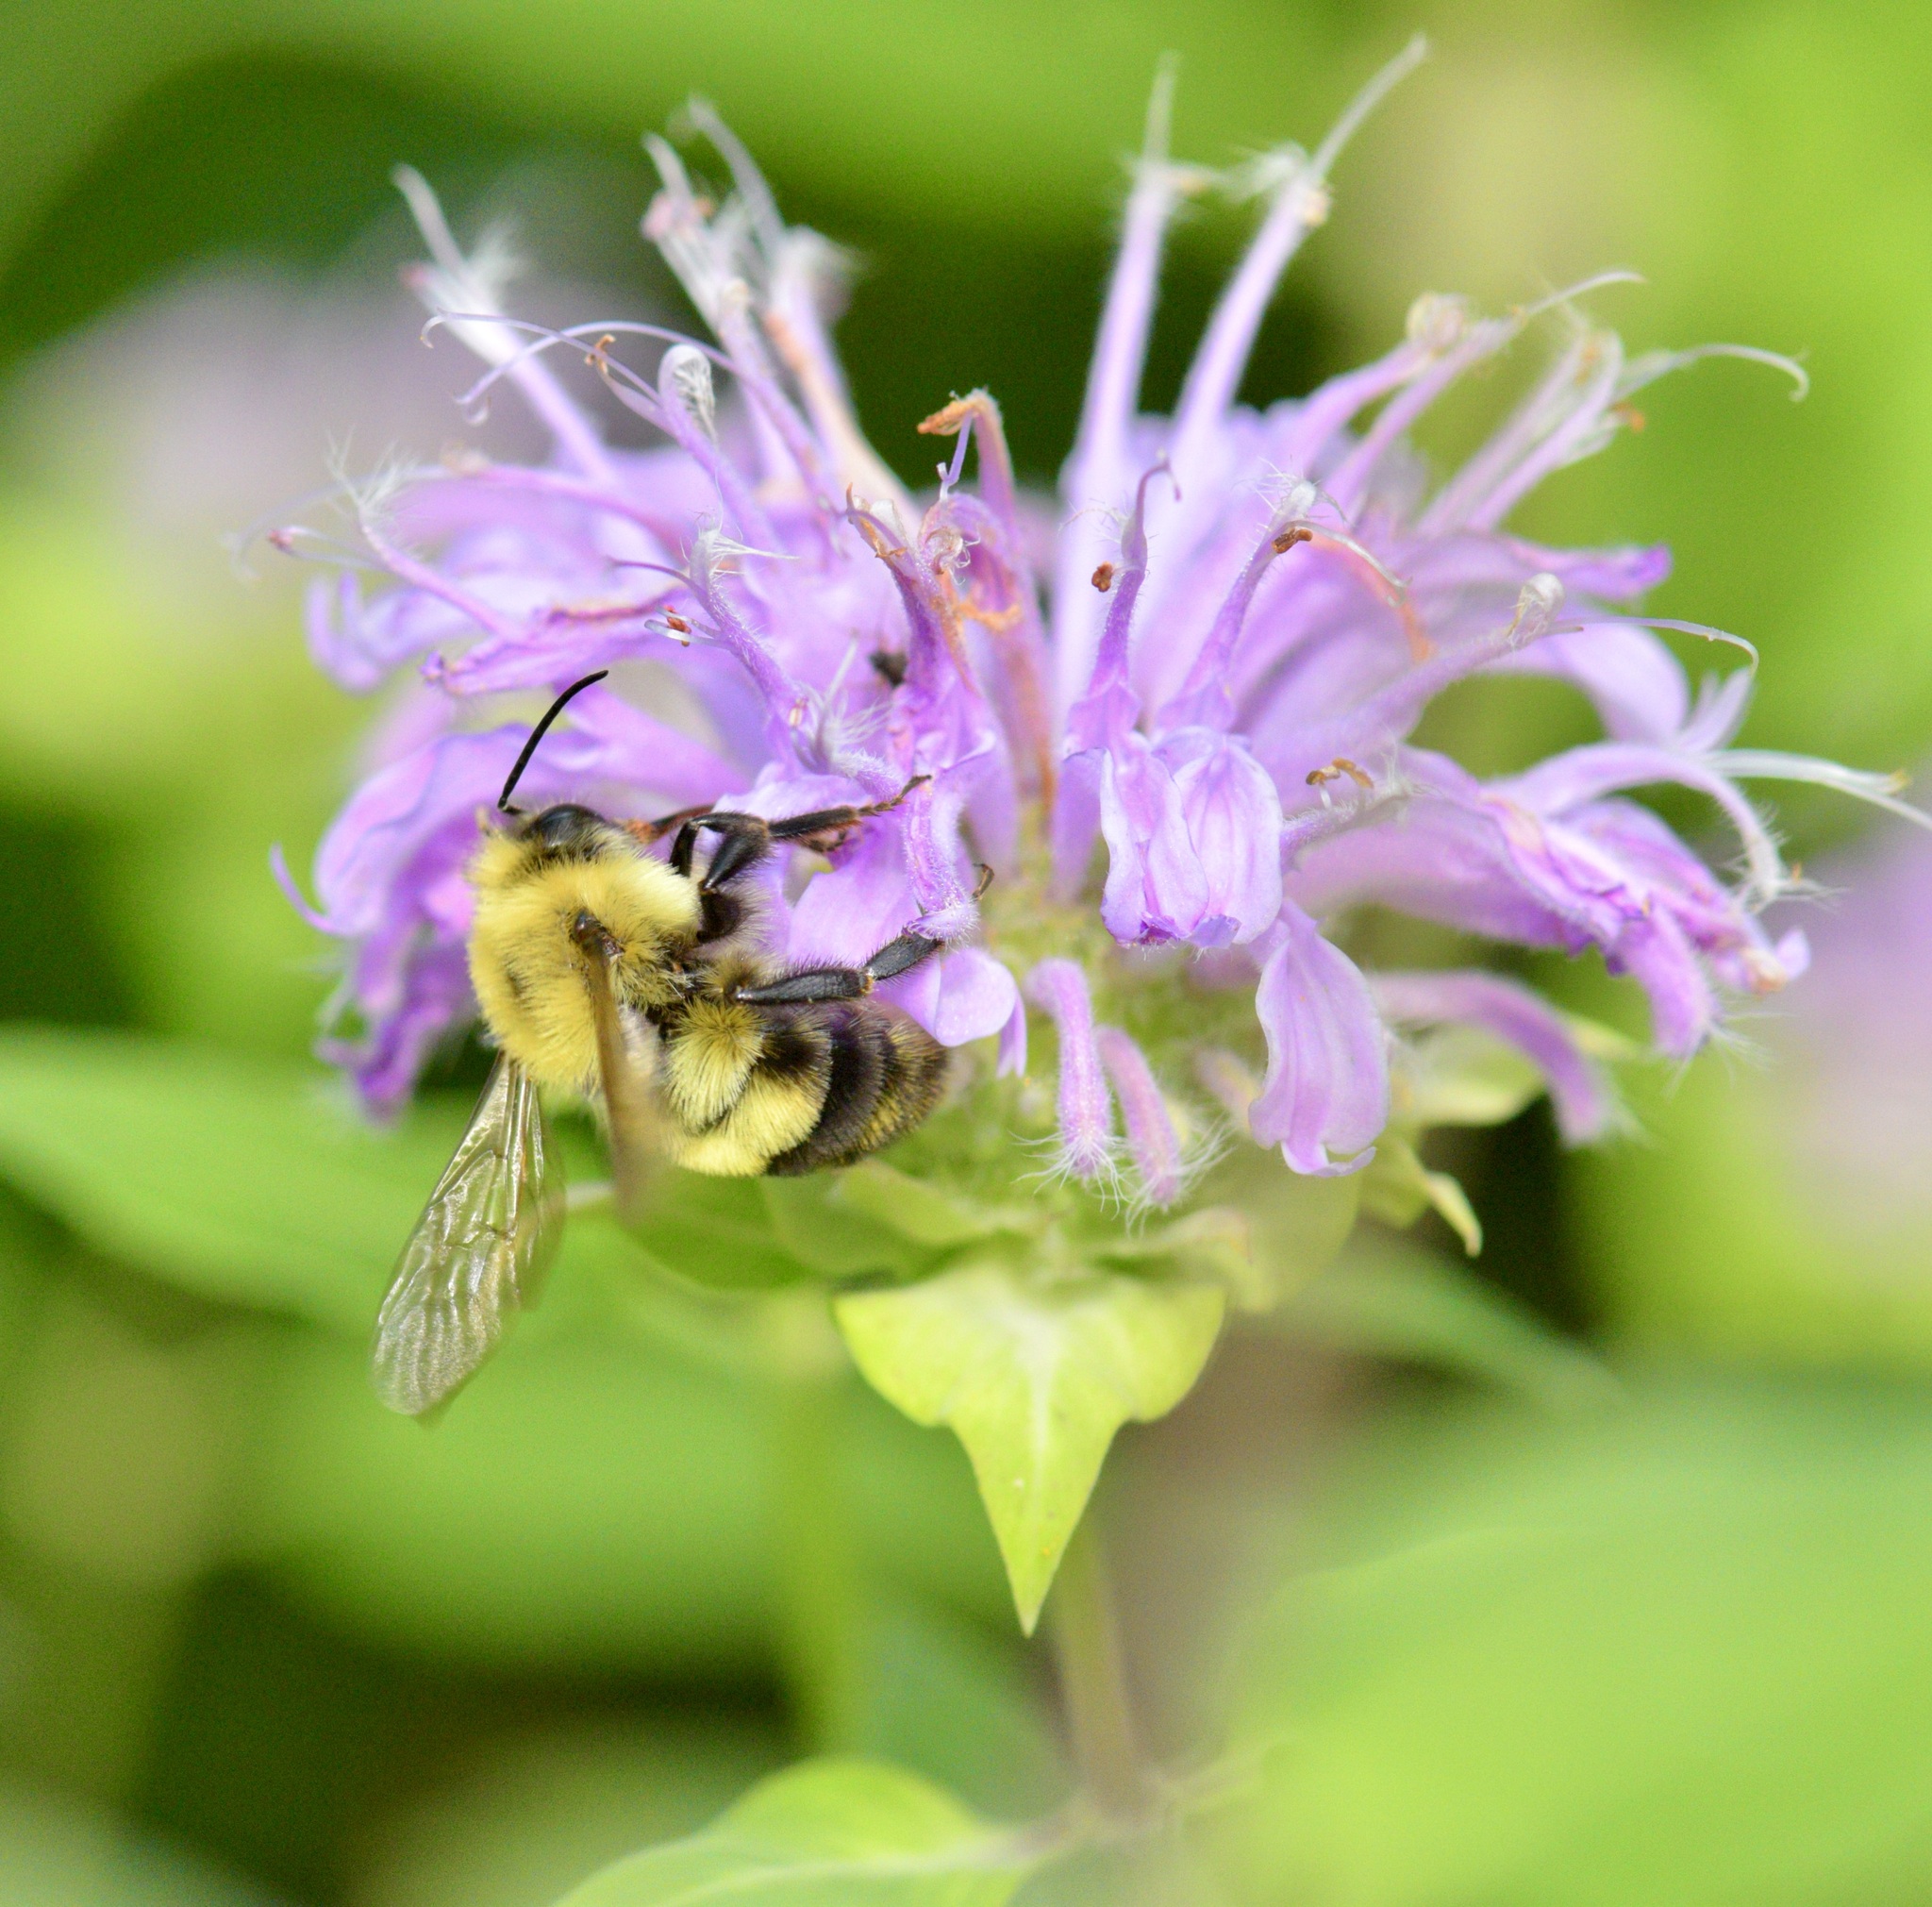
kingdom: Animalia
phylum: Arthropoda
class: Insecta
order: Hymenoptera
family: Apidae
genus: Bombus
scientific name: Bombus bimaculatus
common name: Two-spotted bumble bee
